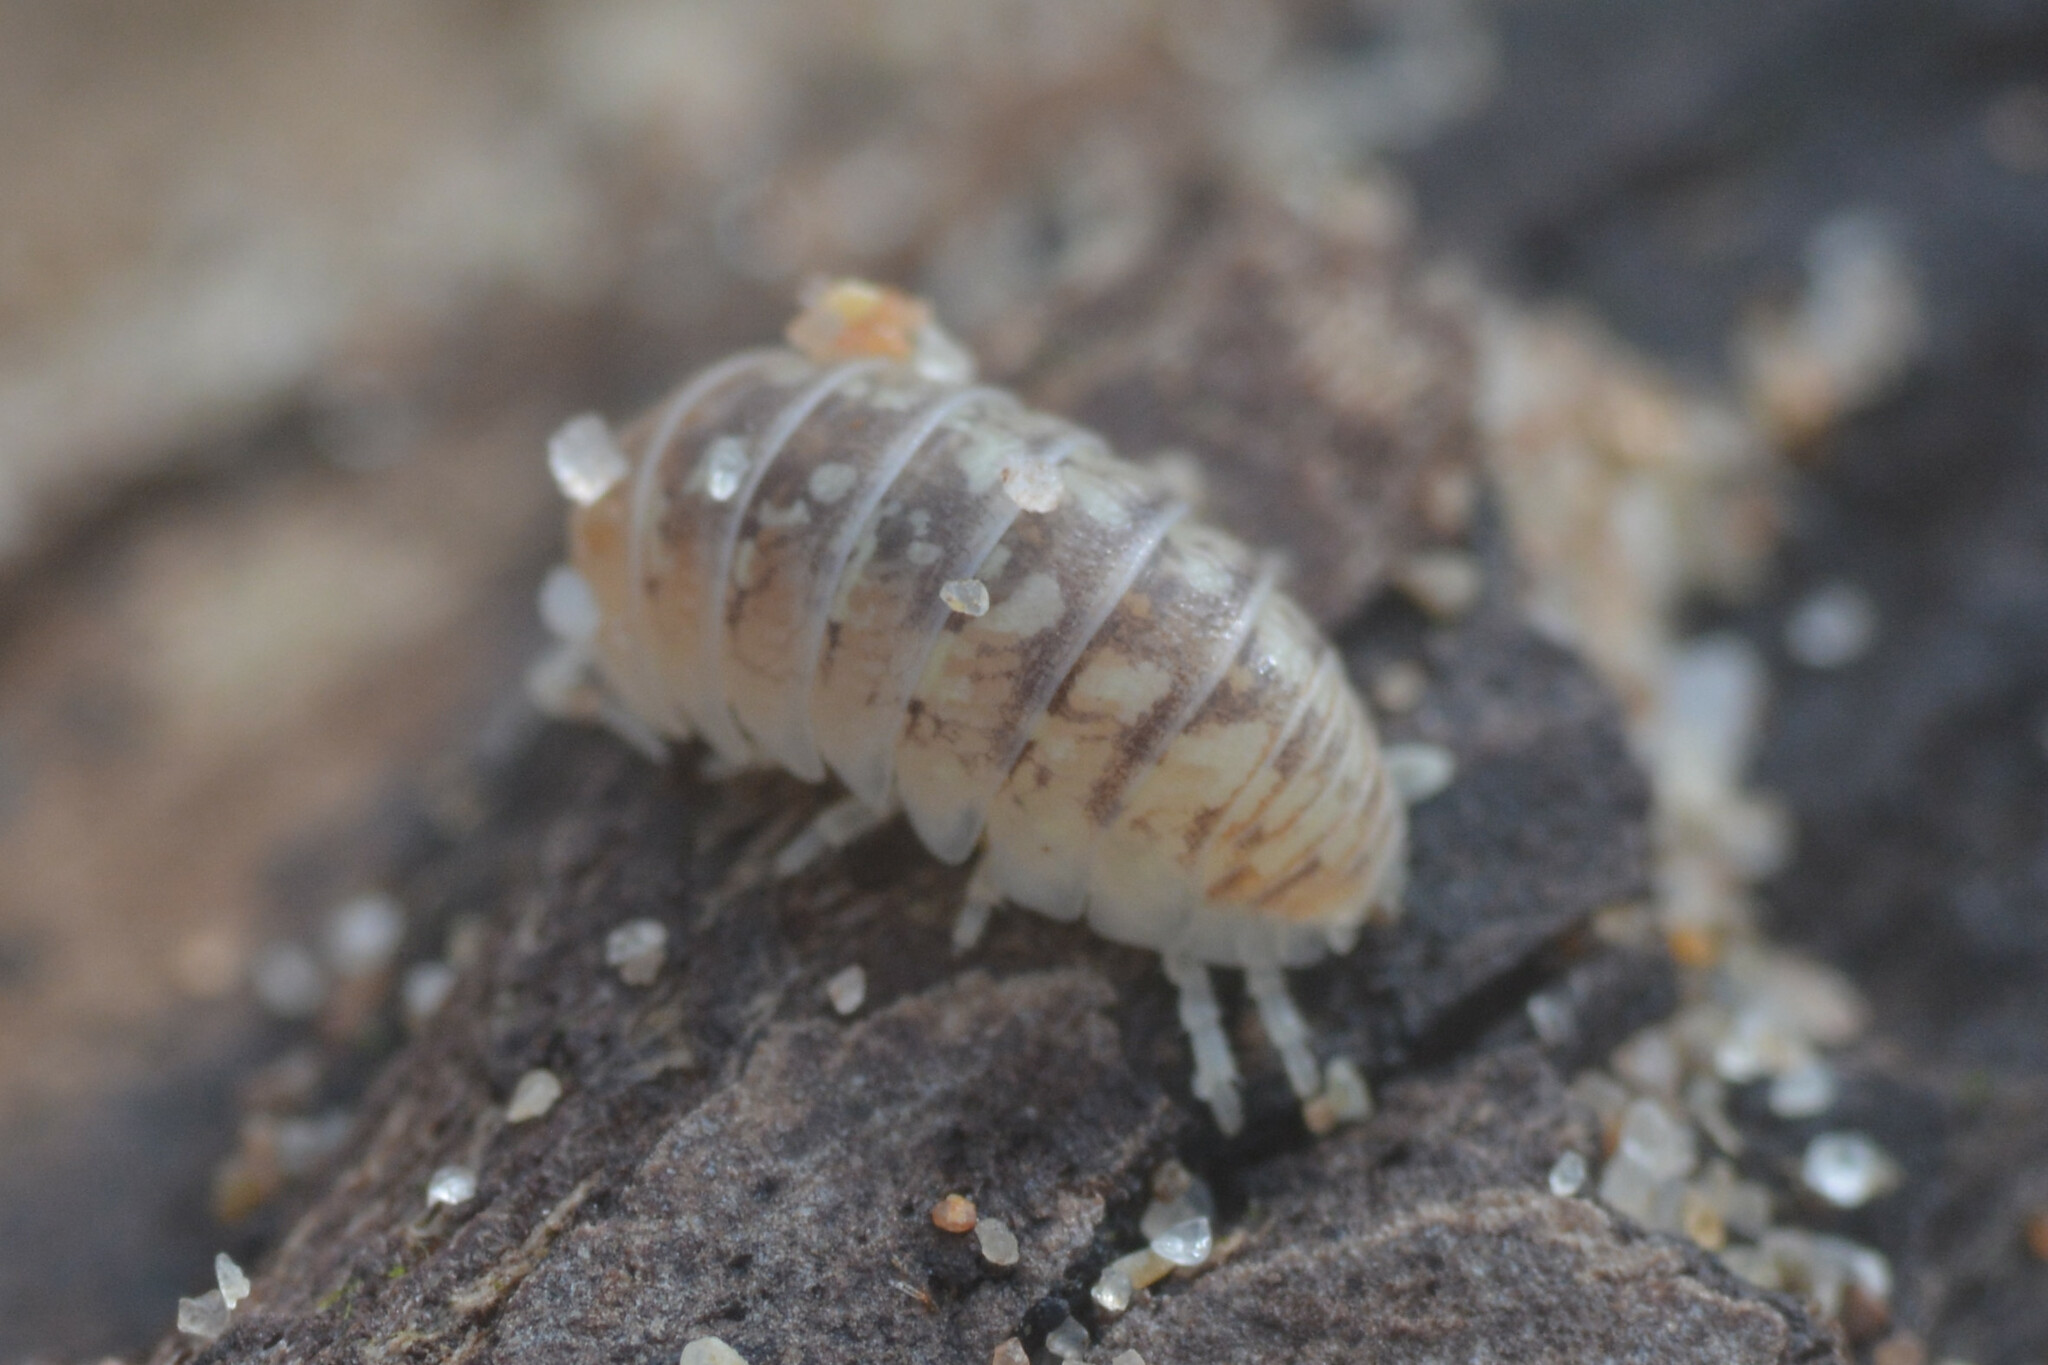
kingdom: Animalia
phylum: Arthropoda
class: Malacostraca
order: Isopoda
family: Armadillidiidae
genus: Armadillidium
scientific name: Armadillidium album
